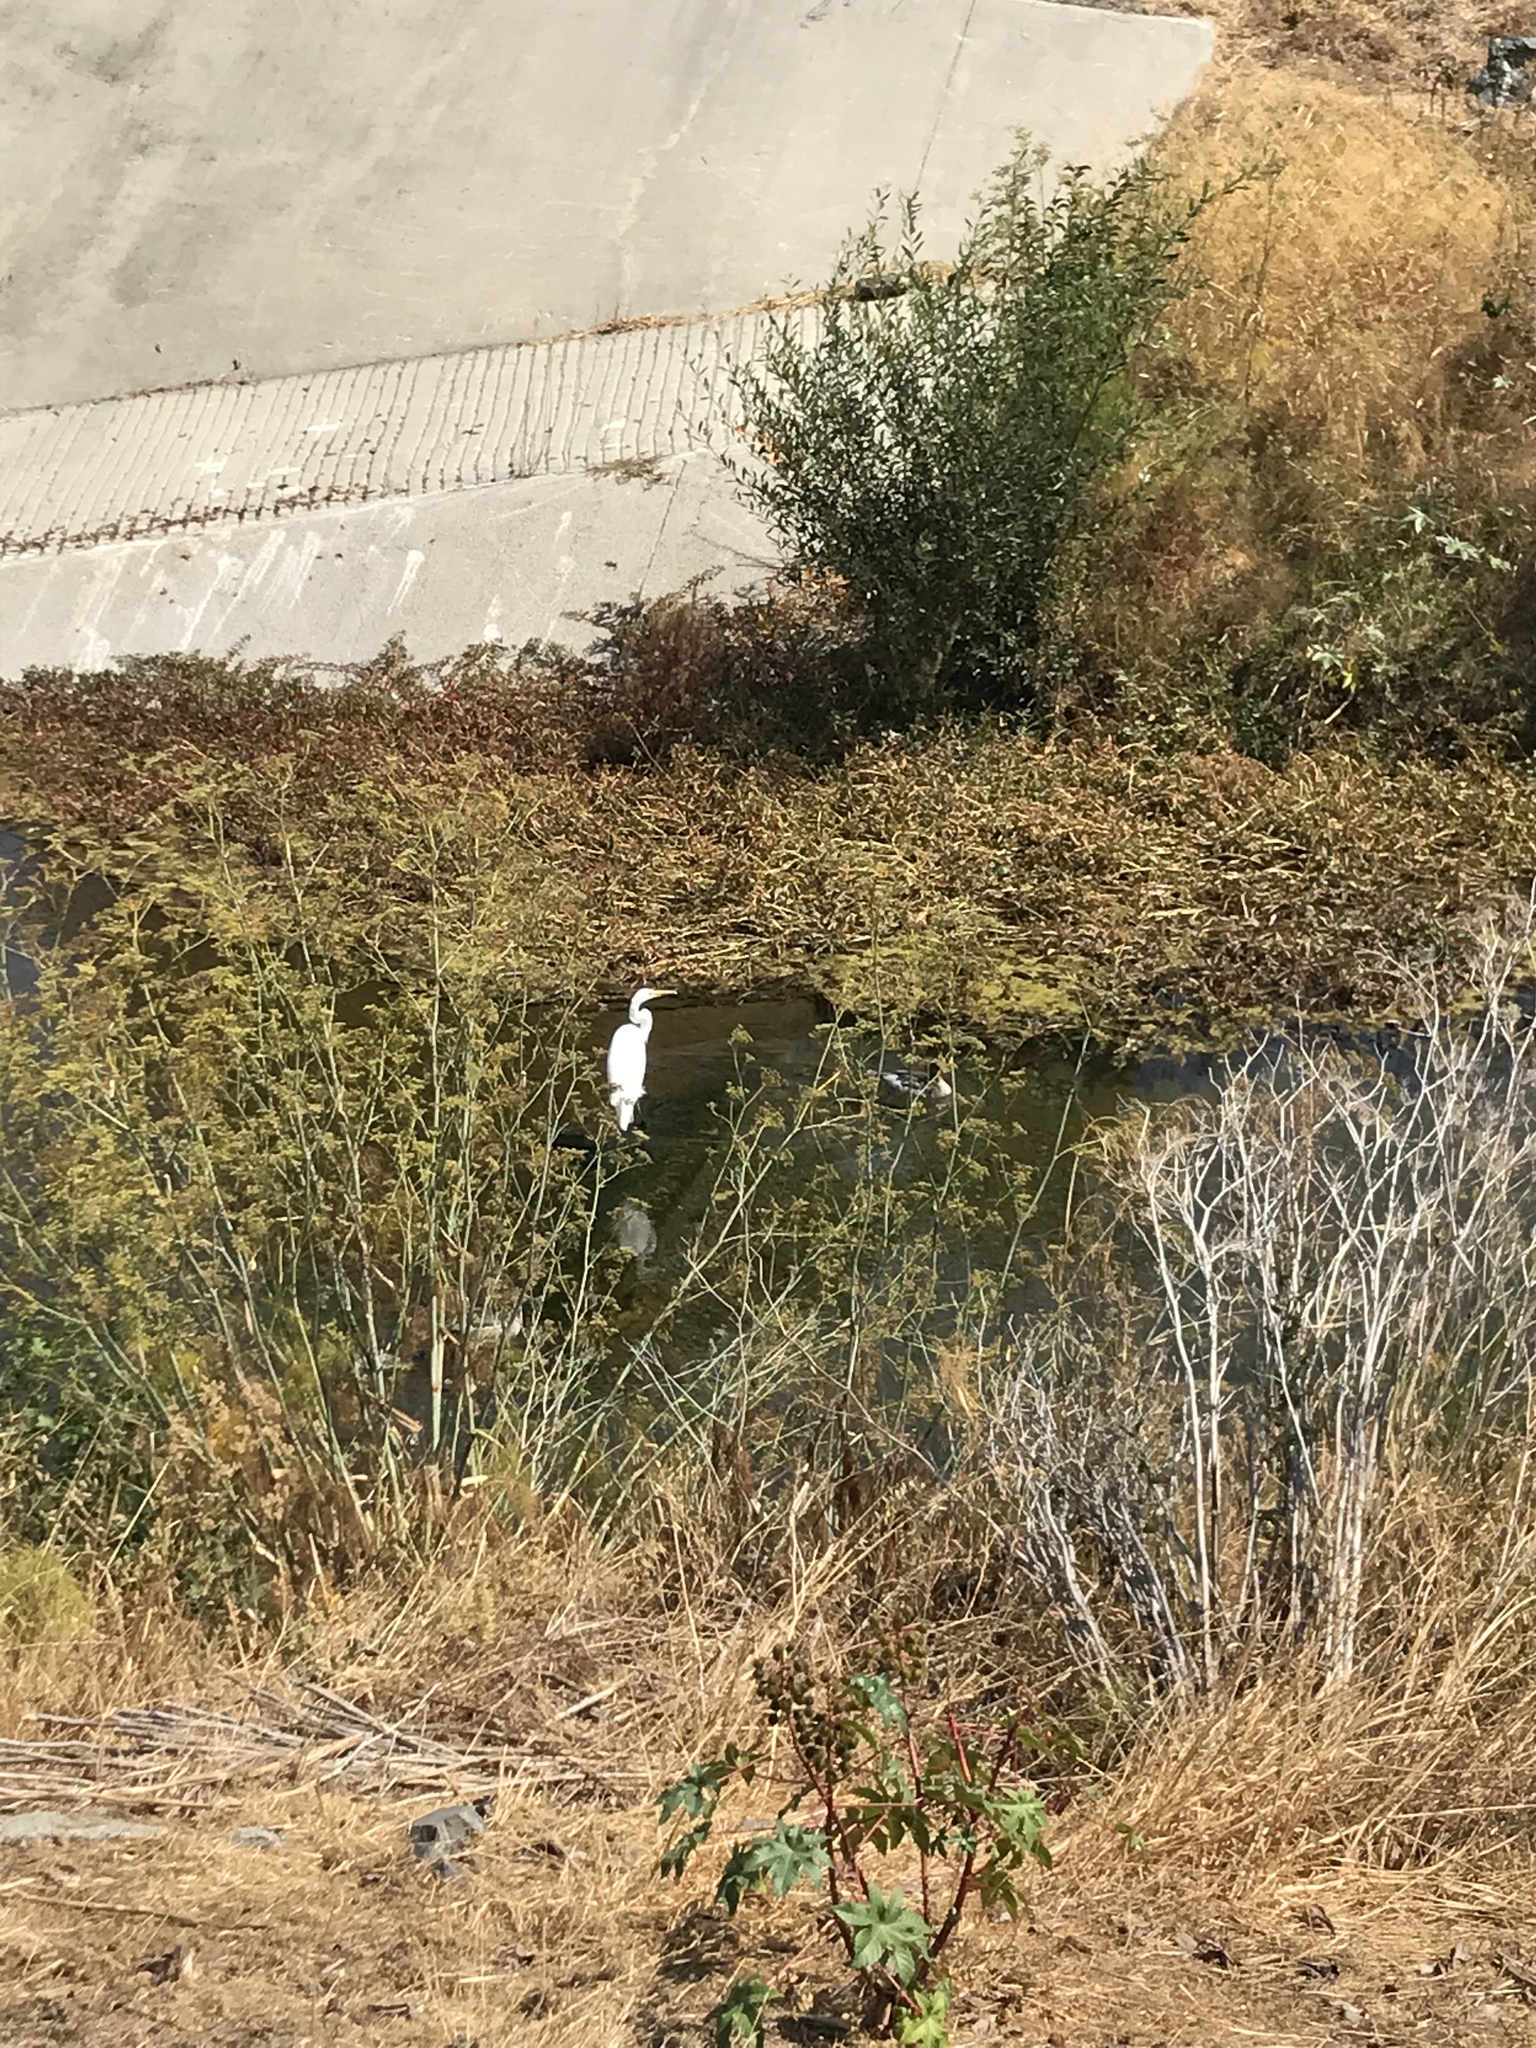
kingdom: Animalia
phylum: Chordata
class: Aves
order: Pelecaniformes
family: Ardeidae
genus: Ardea
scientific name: Ardea alba
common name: Great egret
